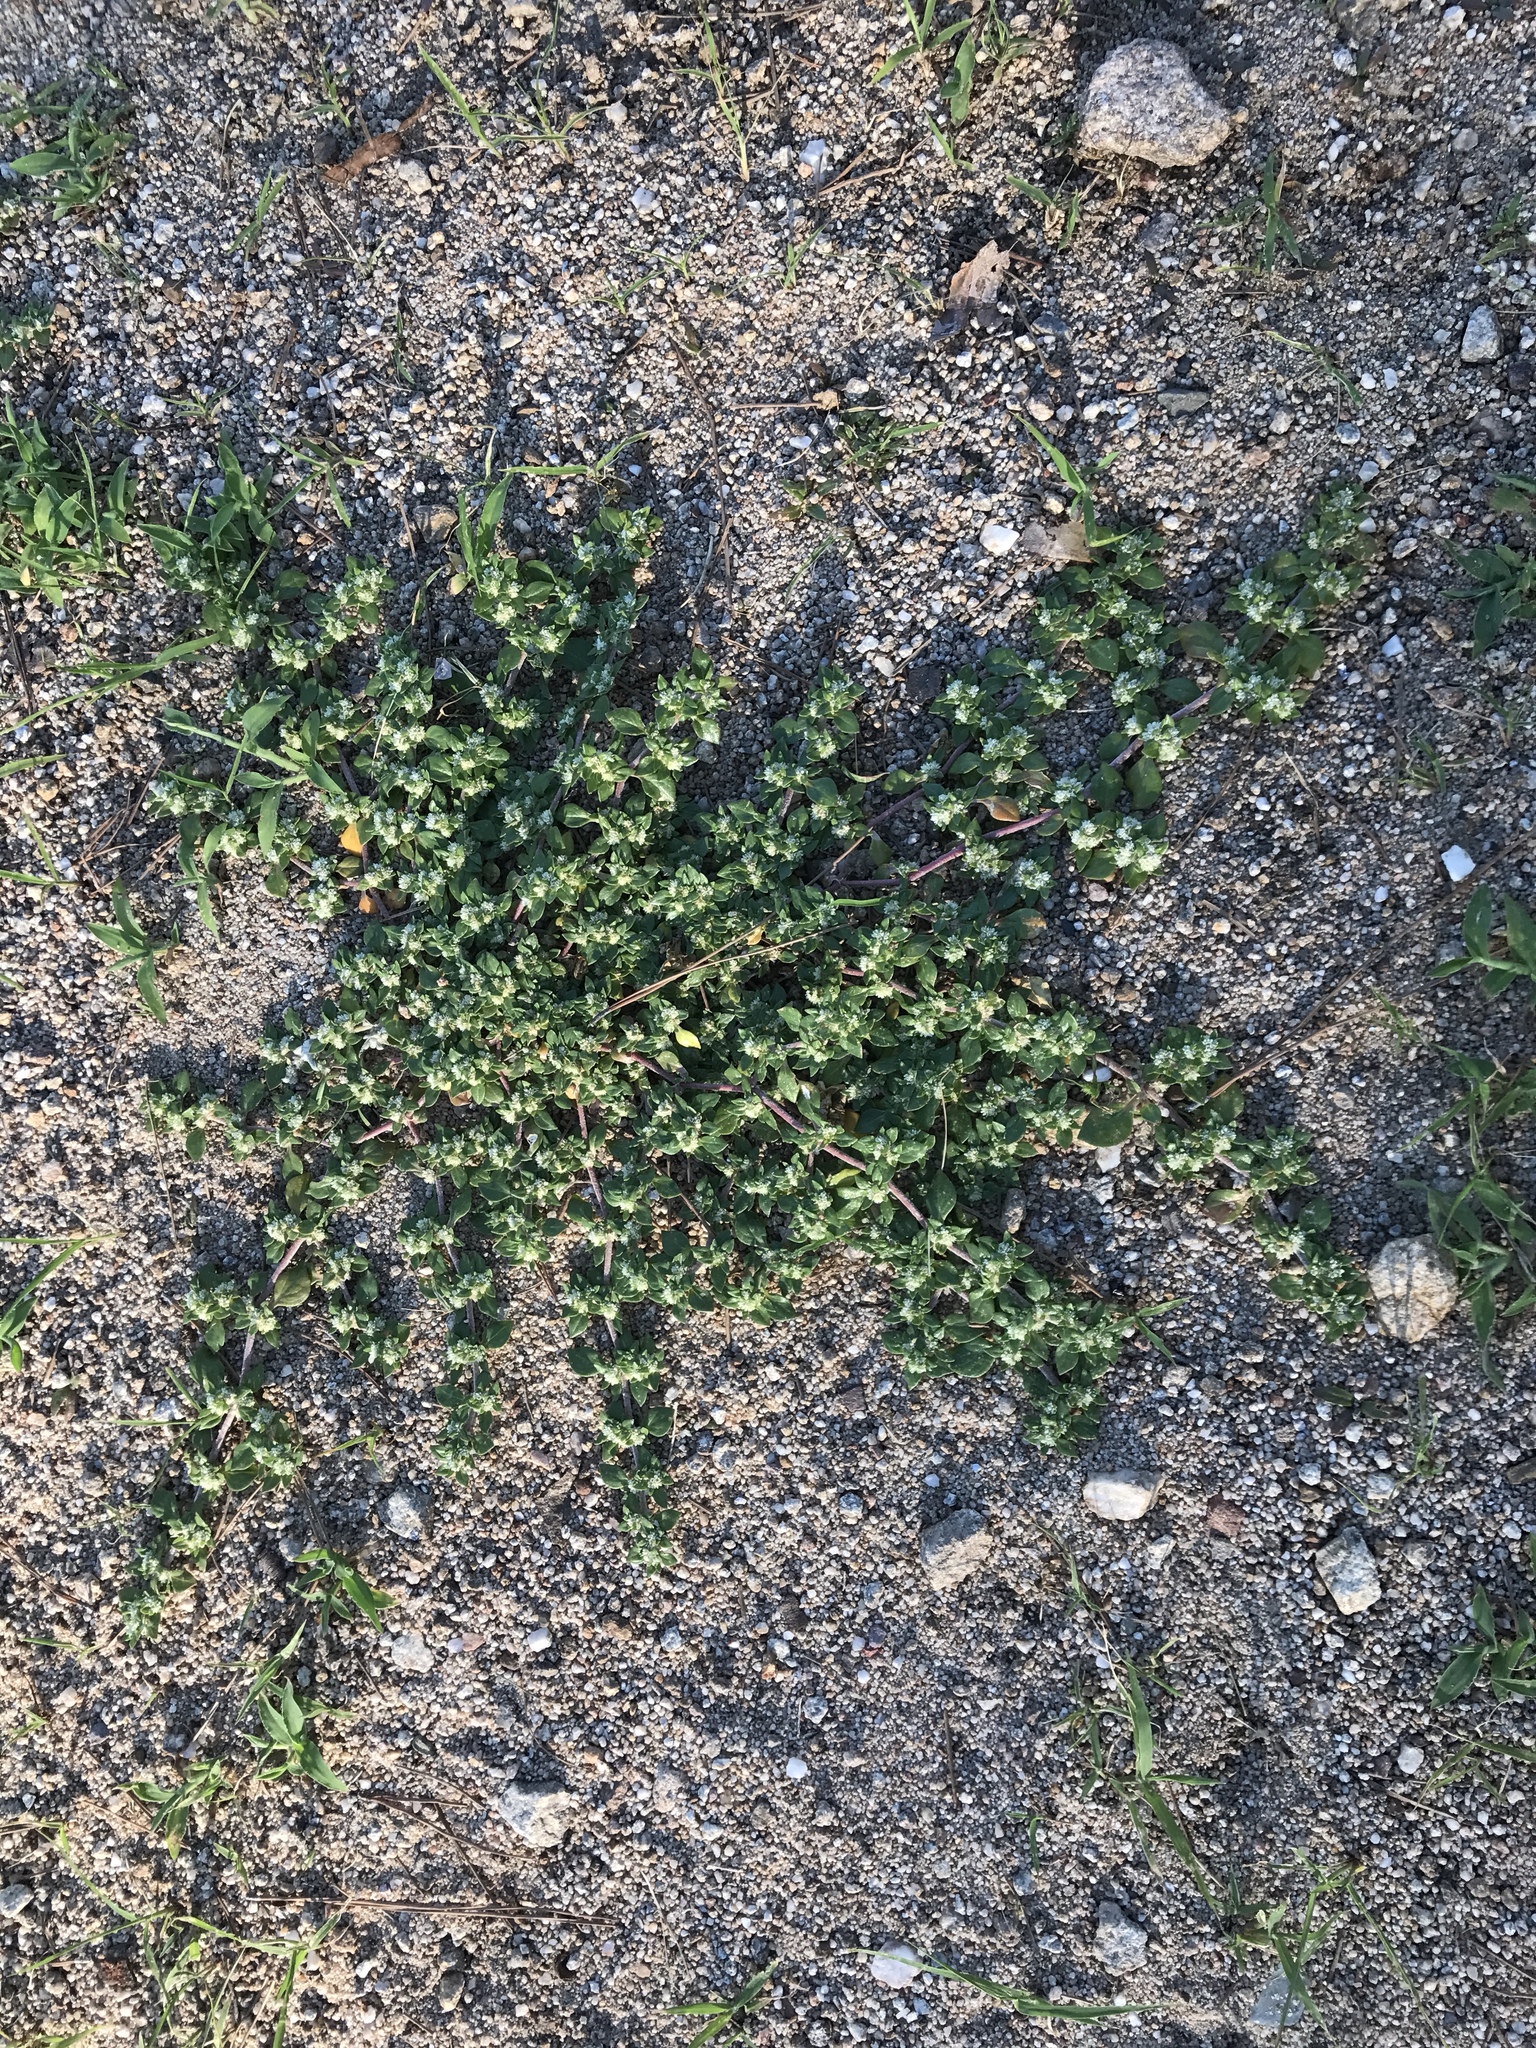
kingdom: Plantae
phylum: Tracheophyta
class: Magnoliopsida
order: Caryophyllales
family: Amaranthaceae
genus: Guilleminea
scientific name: Guilleminea densa
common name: Small matweed
